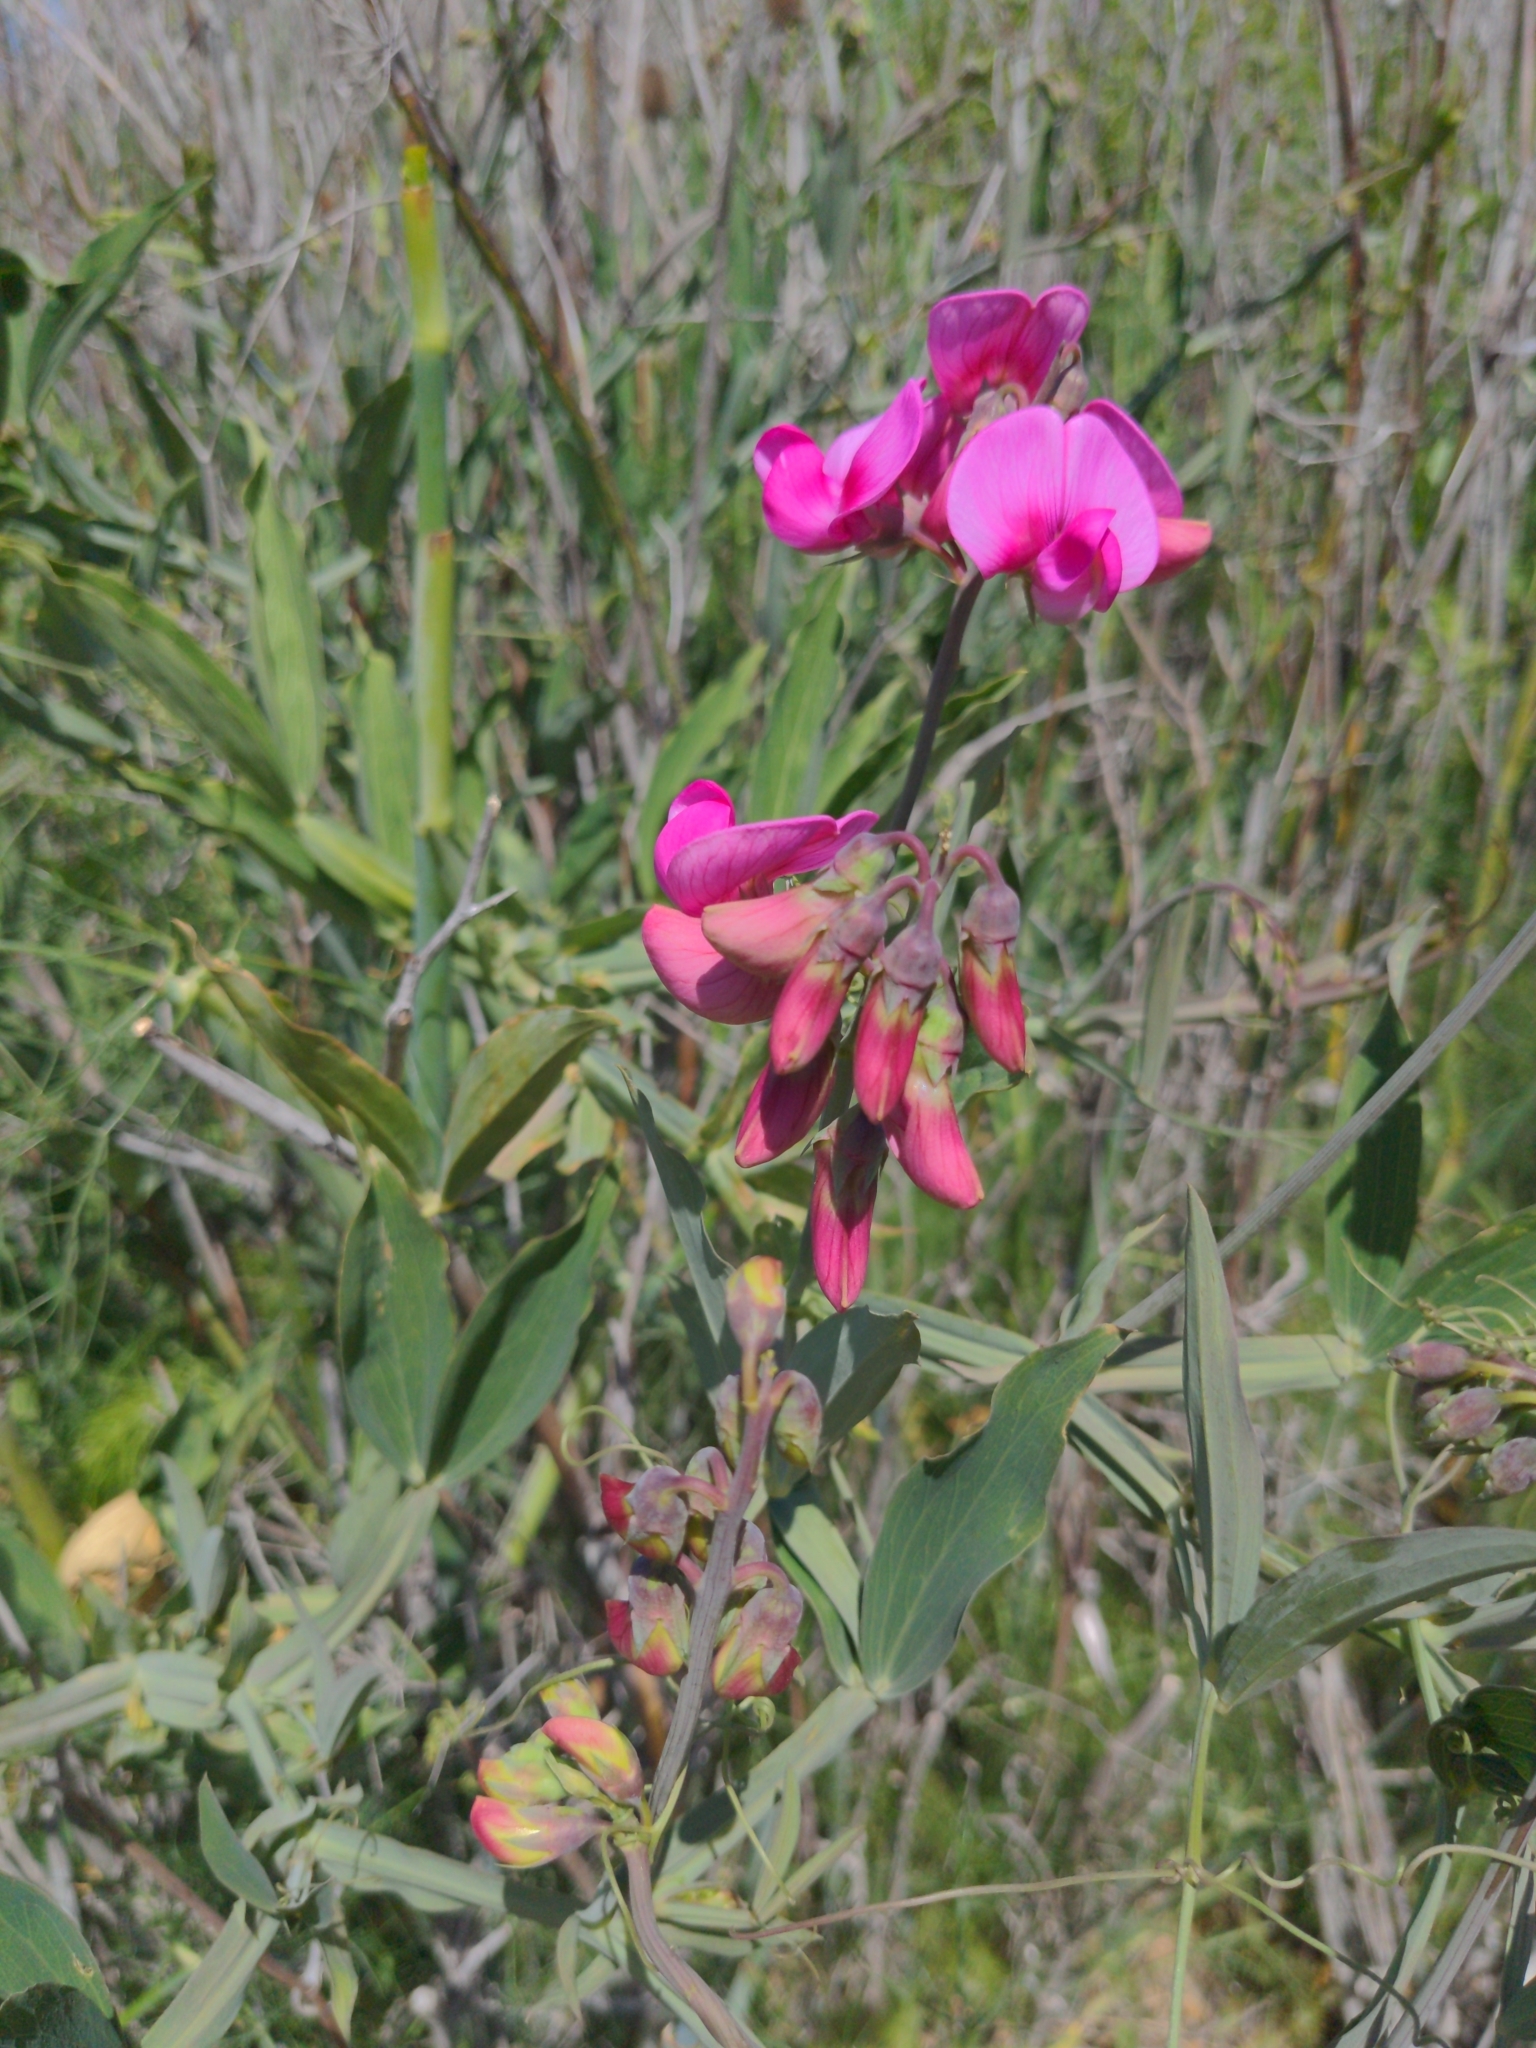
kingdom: Plantae
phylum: Tracheophyta
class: Magnoliopsida
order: Fabales
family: Fabaceae
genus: Lathyrus
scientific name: Lathyrus latifolius
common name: Perennial pea
